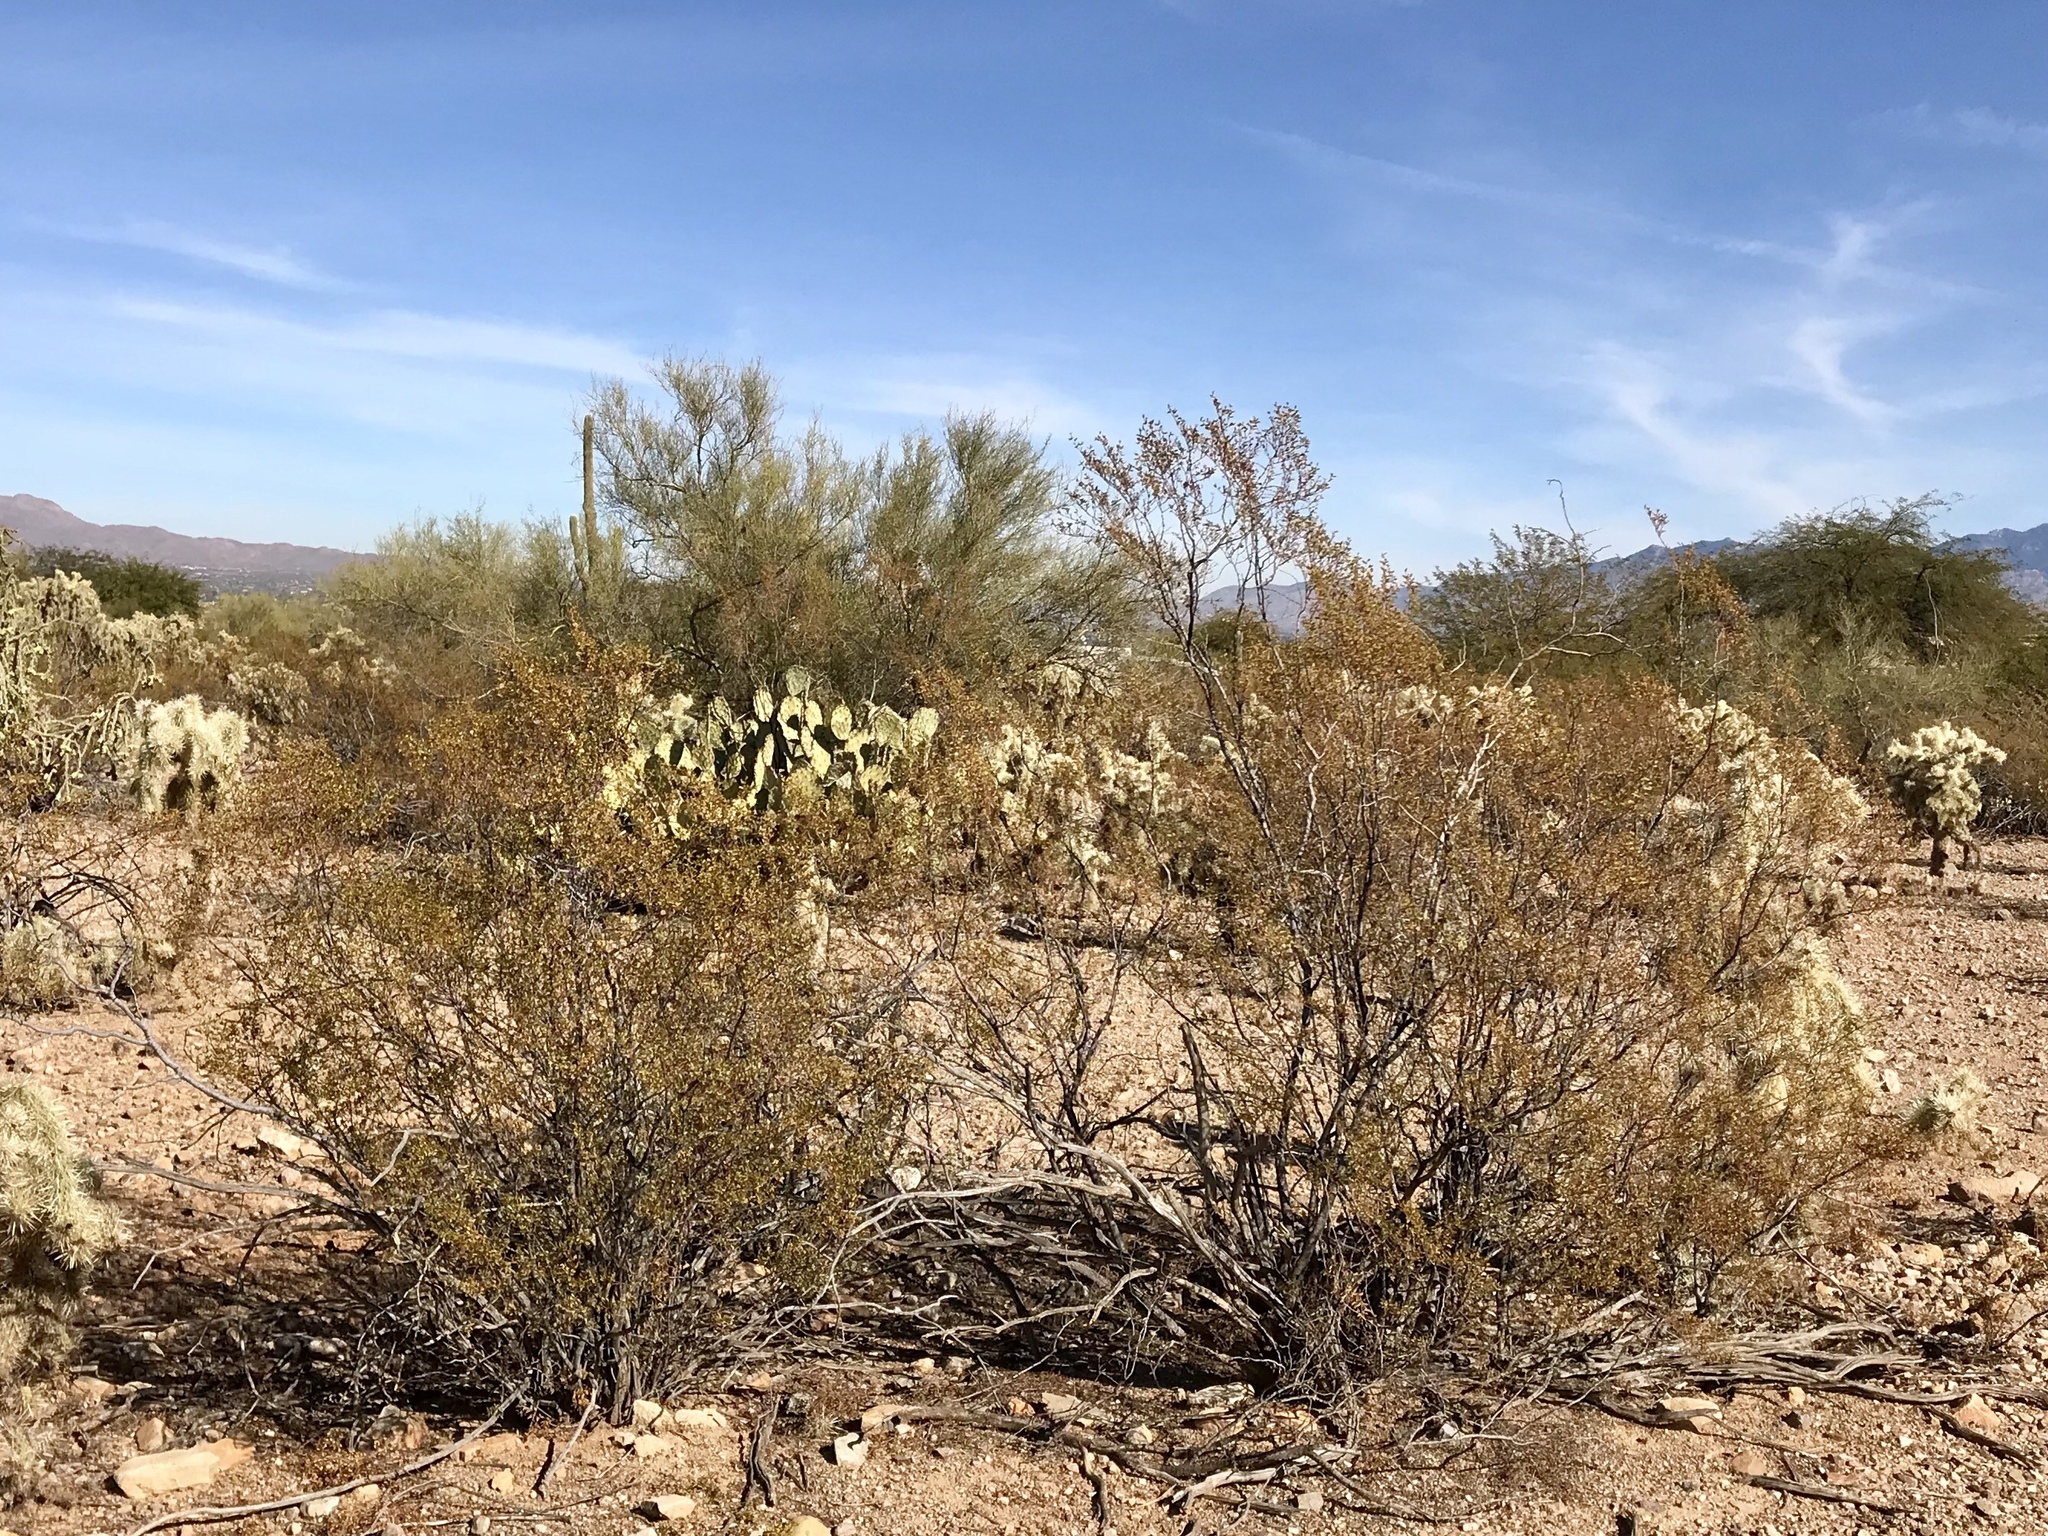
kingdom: Plantae
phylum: Tracheophyta
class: Magnoliopsida
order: Zygophyllales
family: Zygophyllaceae
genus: Larrea
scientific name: Larrea tridentata
